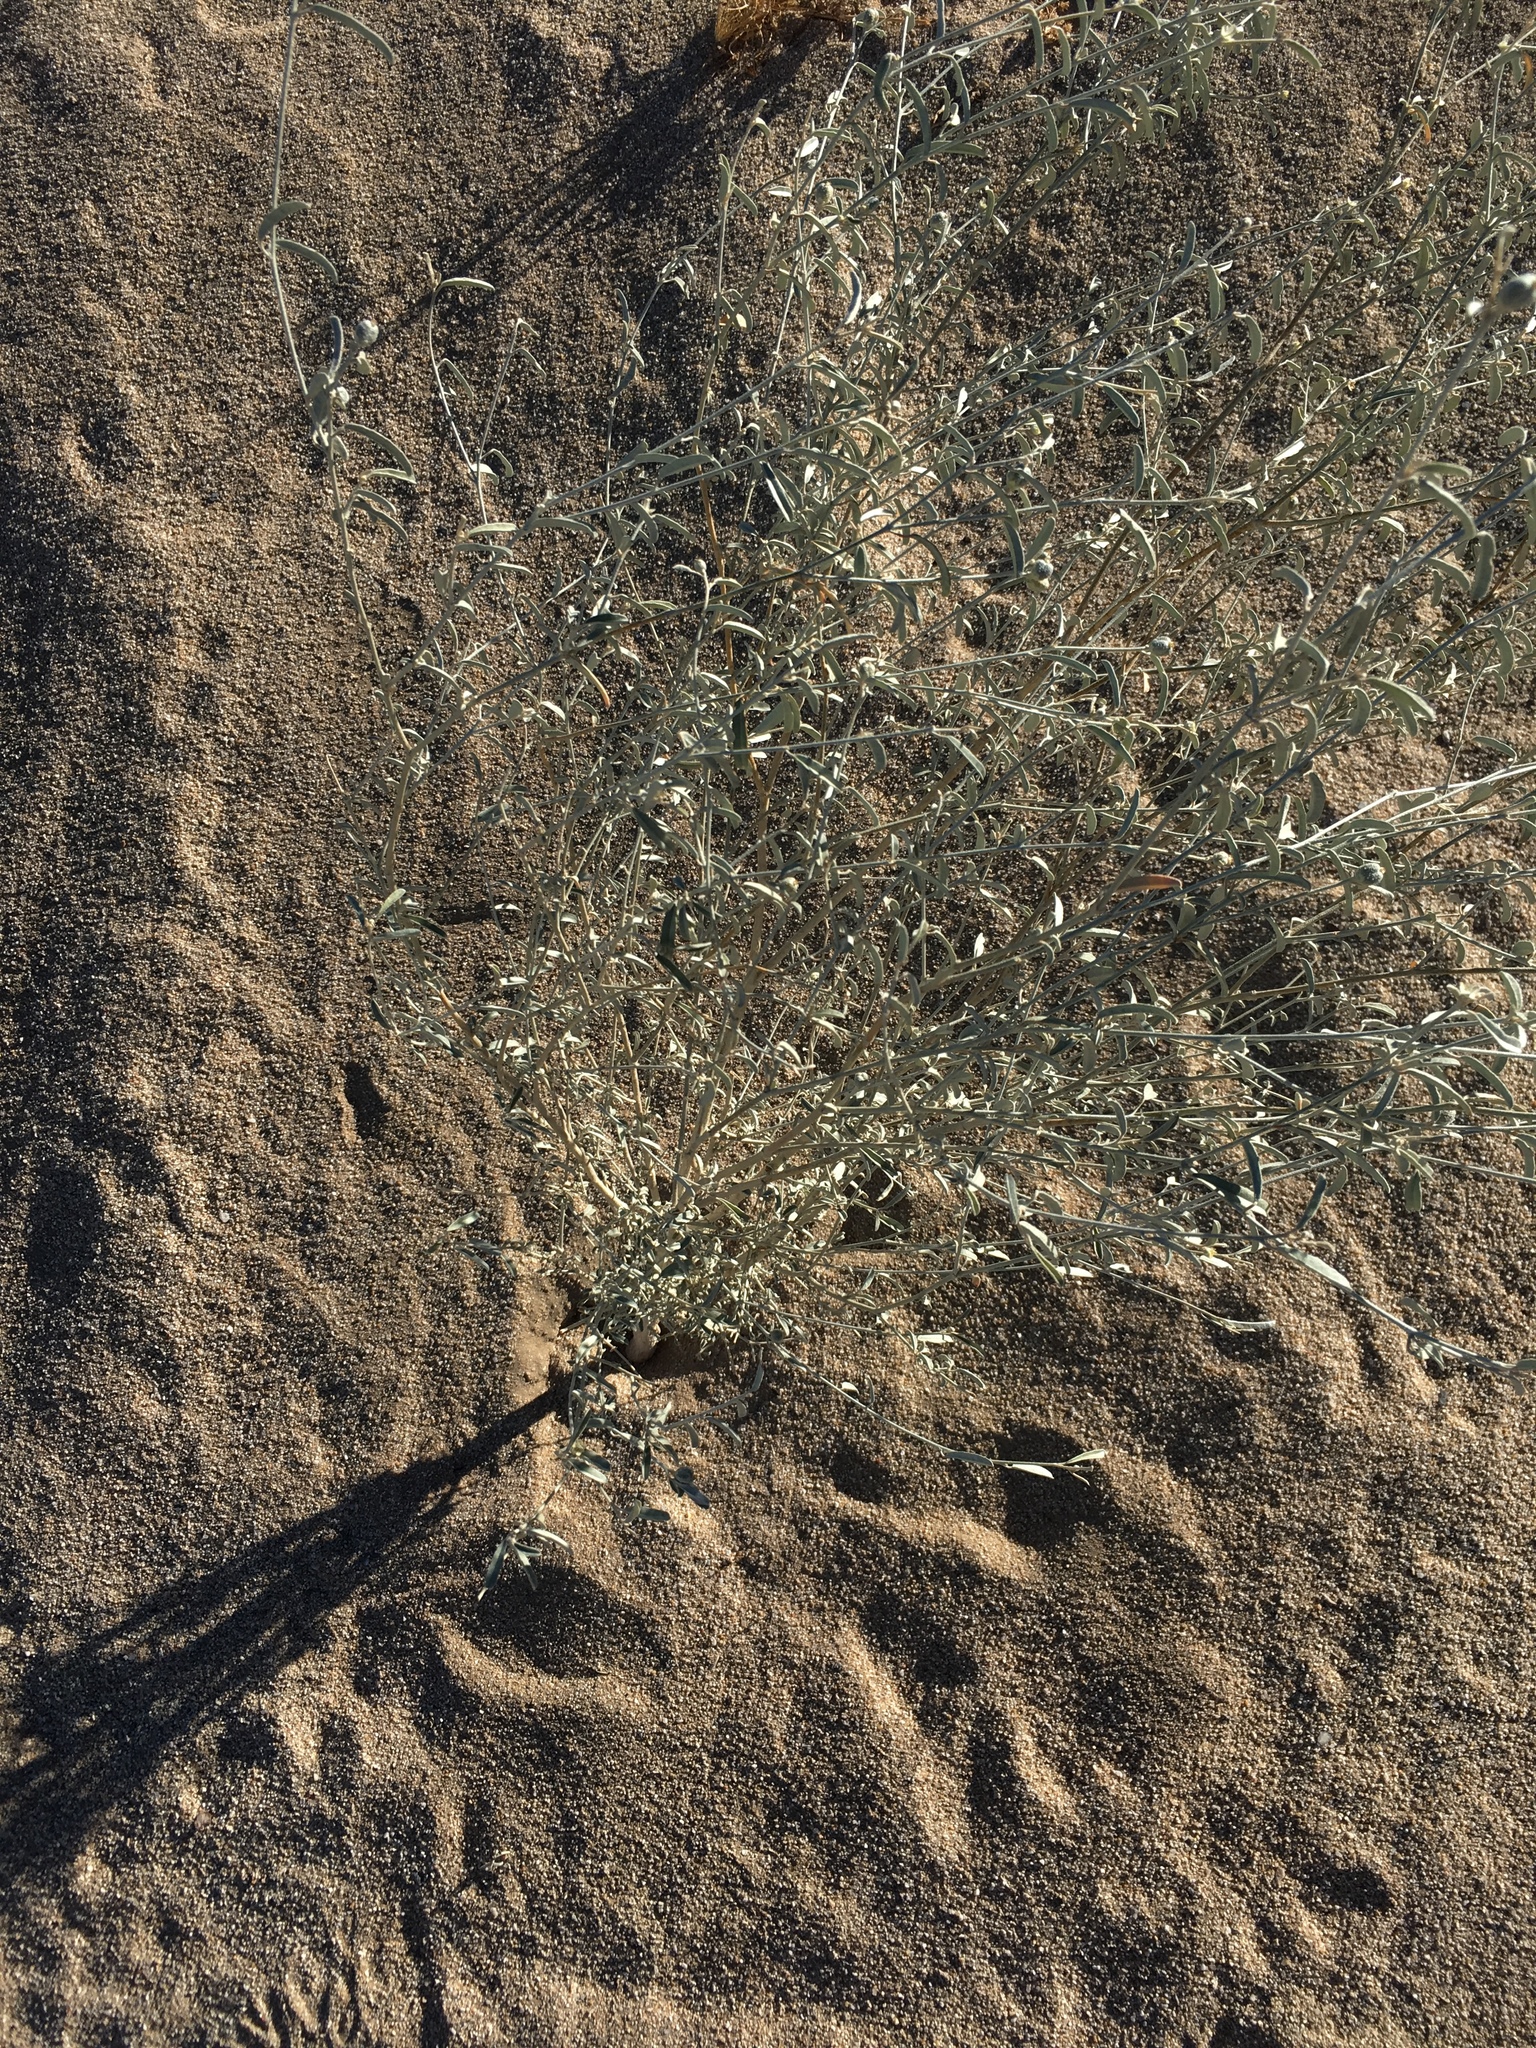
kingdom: Plantae
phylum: Tracheophyta
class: Magnoliopsida
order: Malpighiales
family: Euphorbiaceae
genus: Croton
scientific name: Croton californicus
